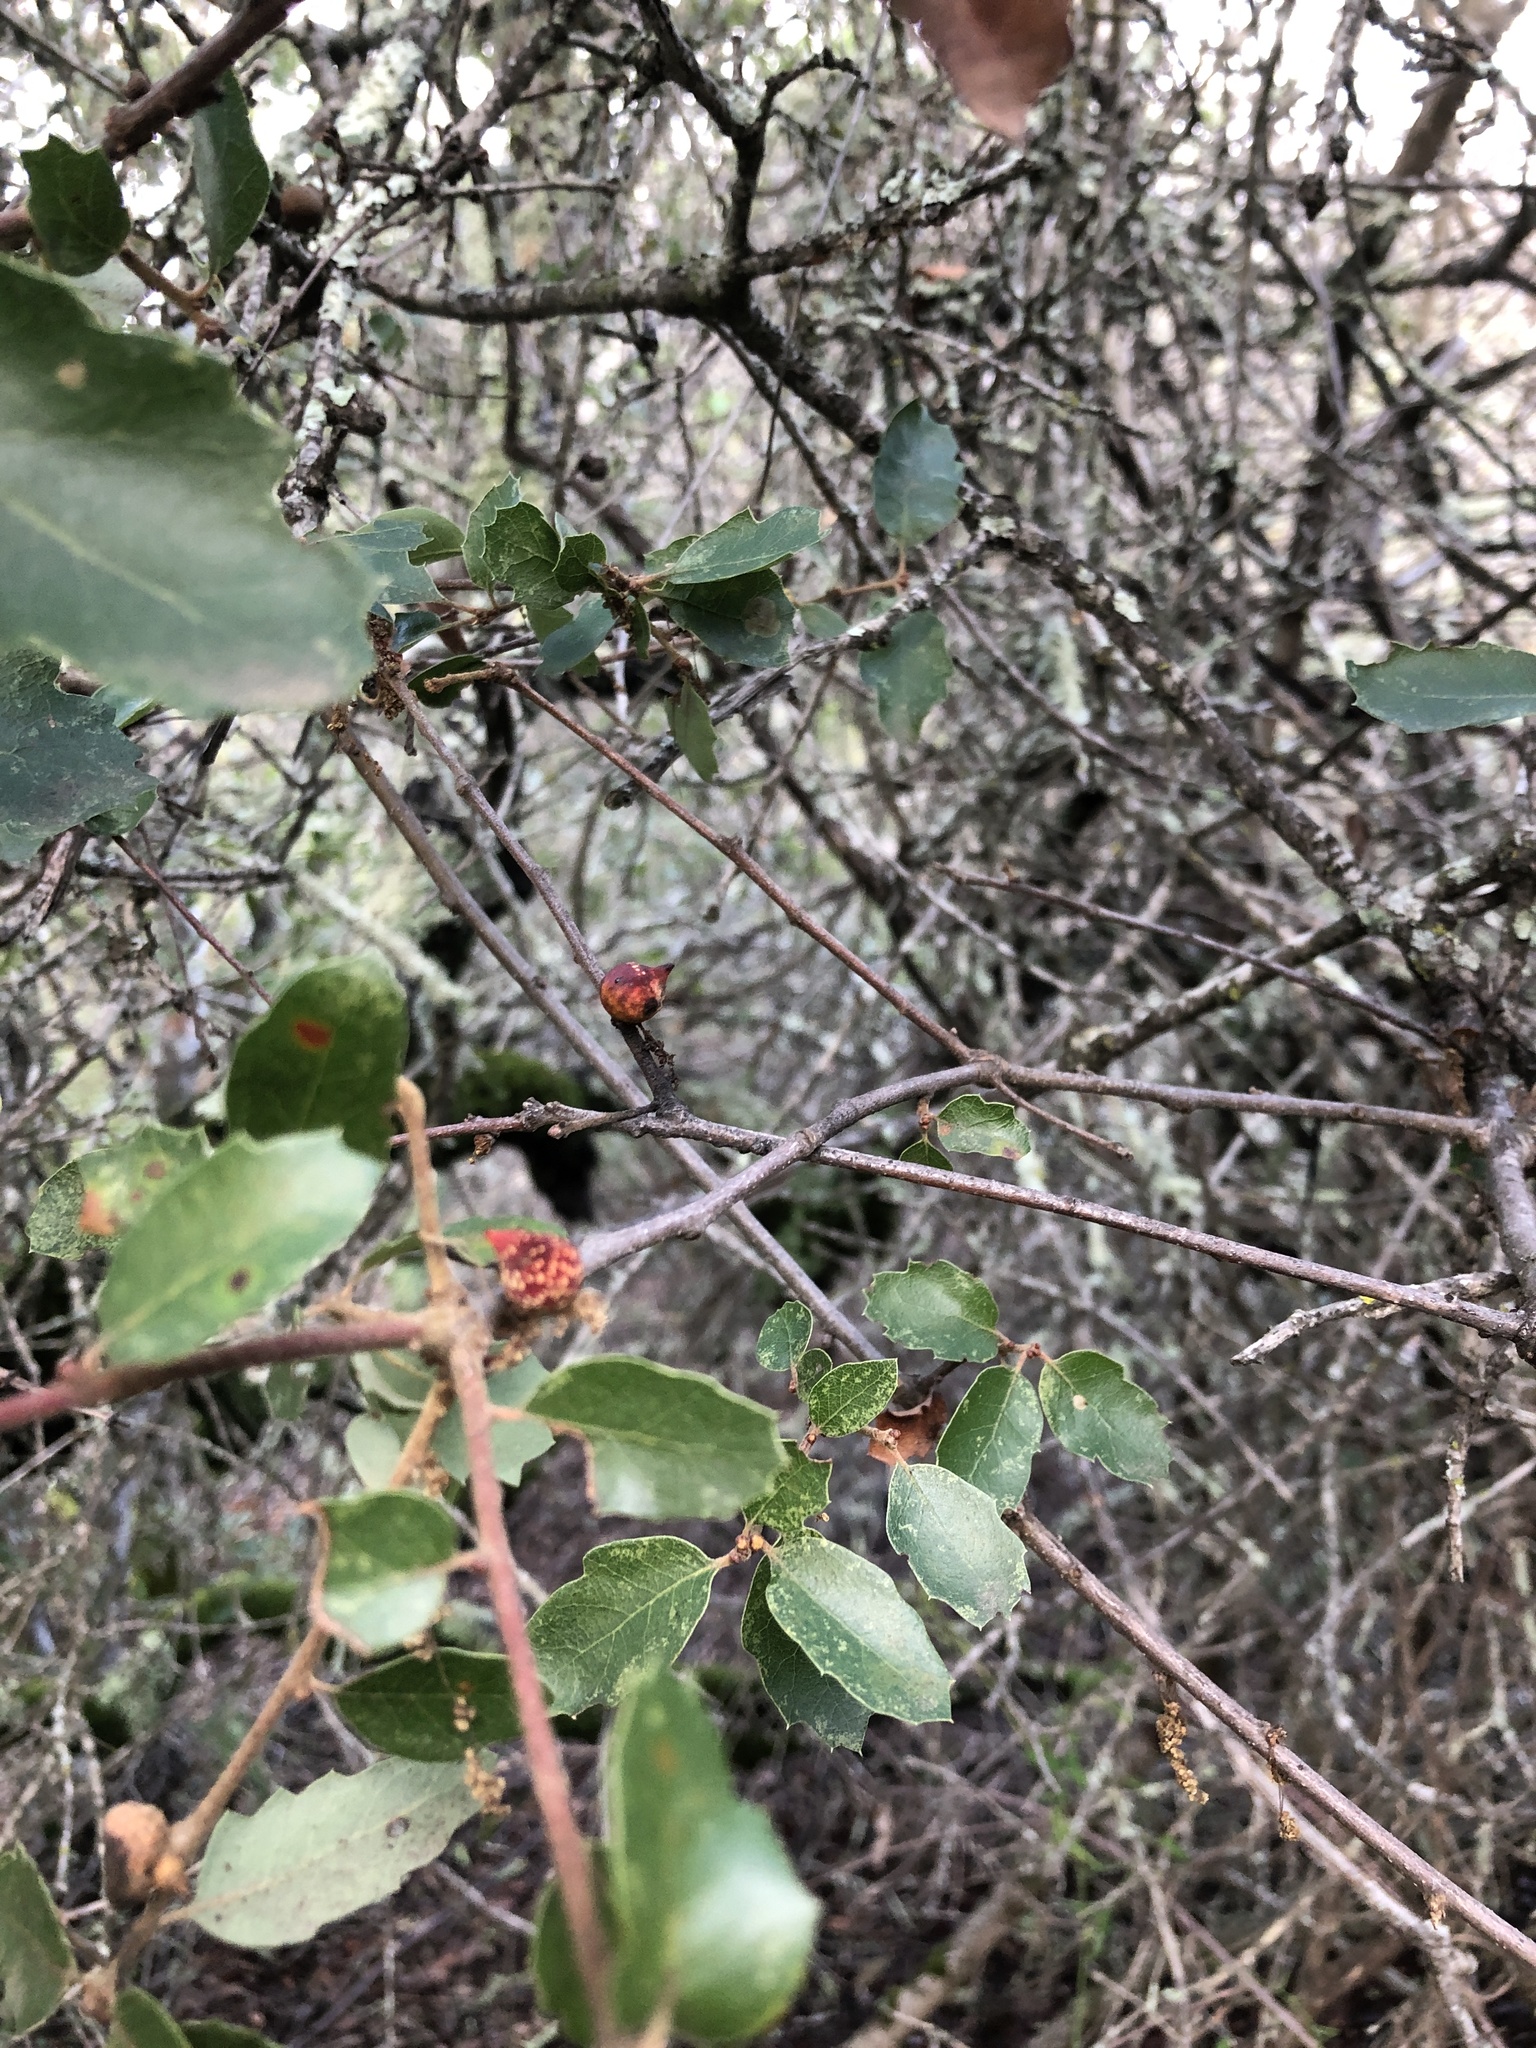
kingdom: Animalia
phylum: Arthropoda
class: Insecta
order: Hymenoptera
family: Cynipidae
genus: Burnettweldia
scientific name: Burnettweldia
